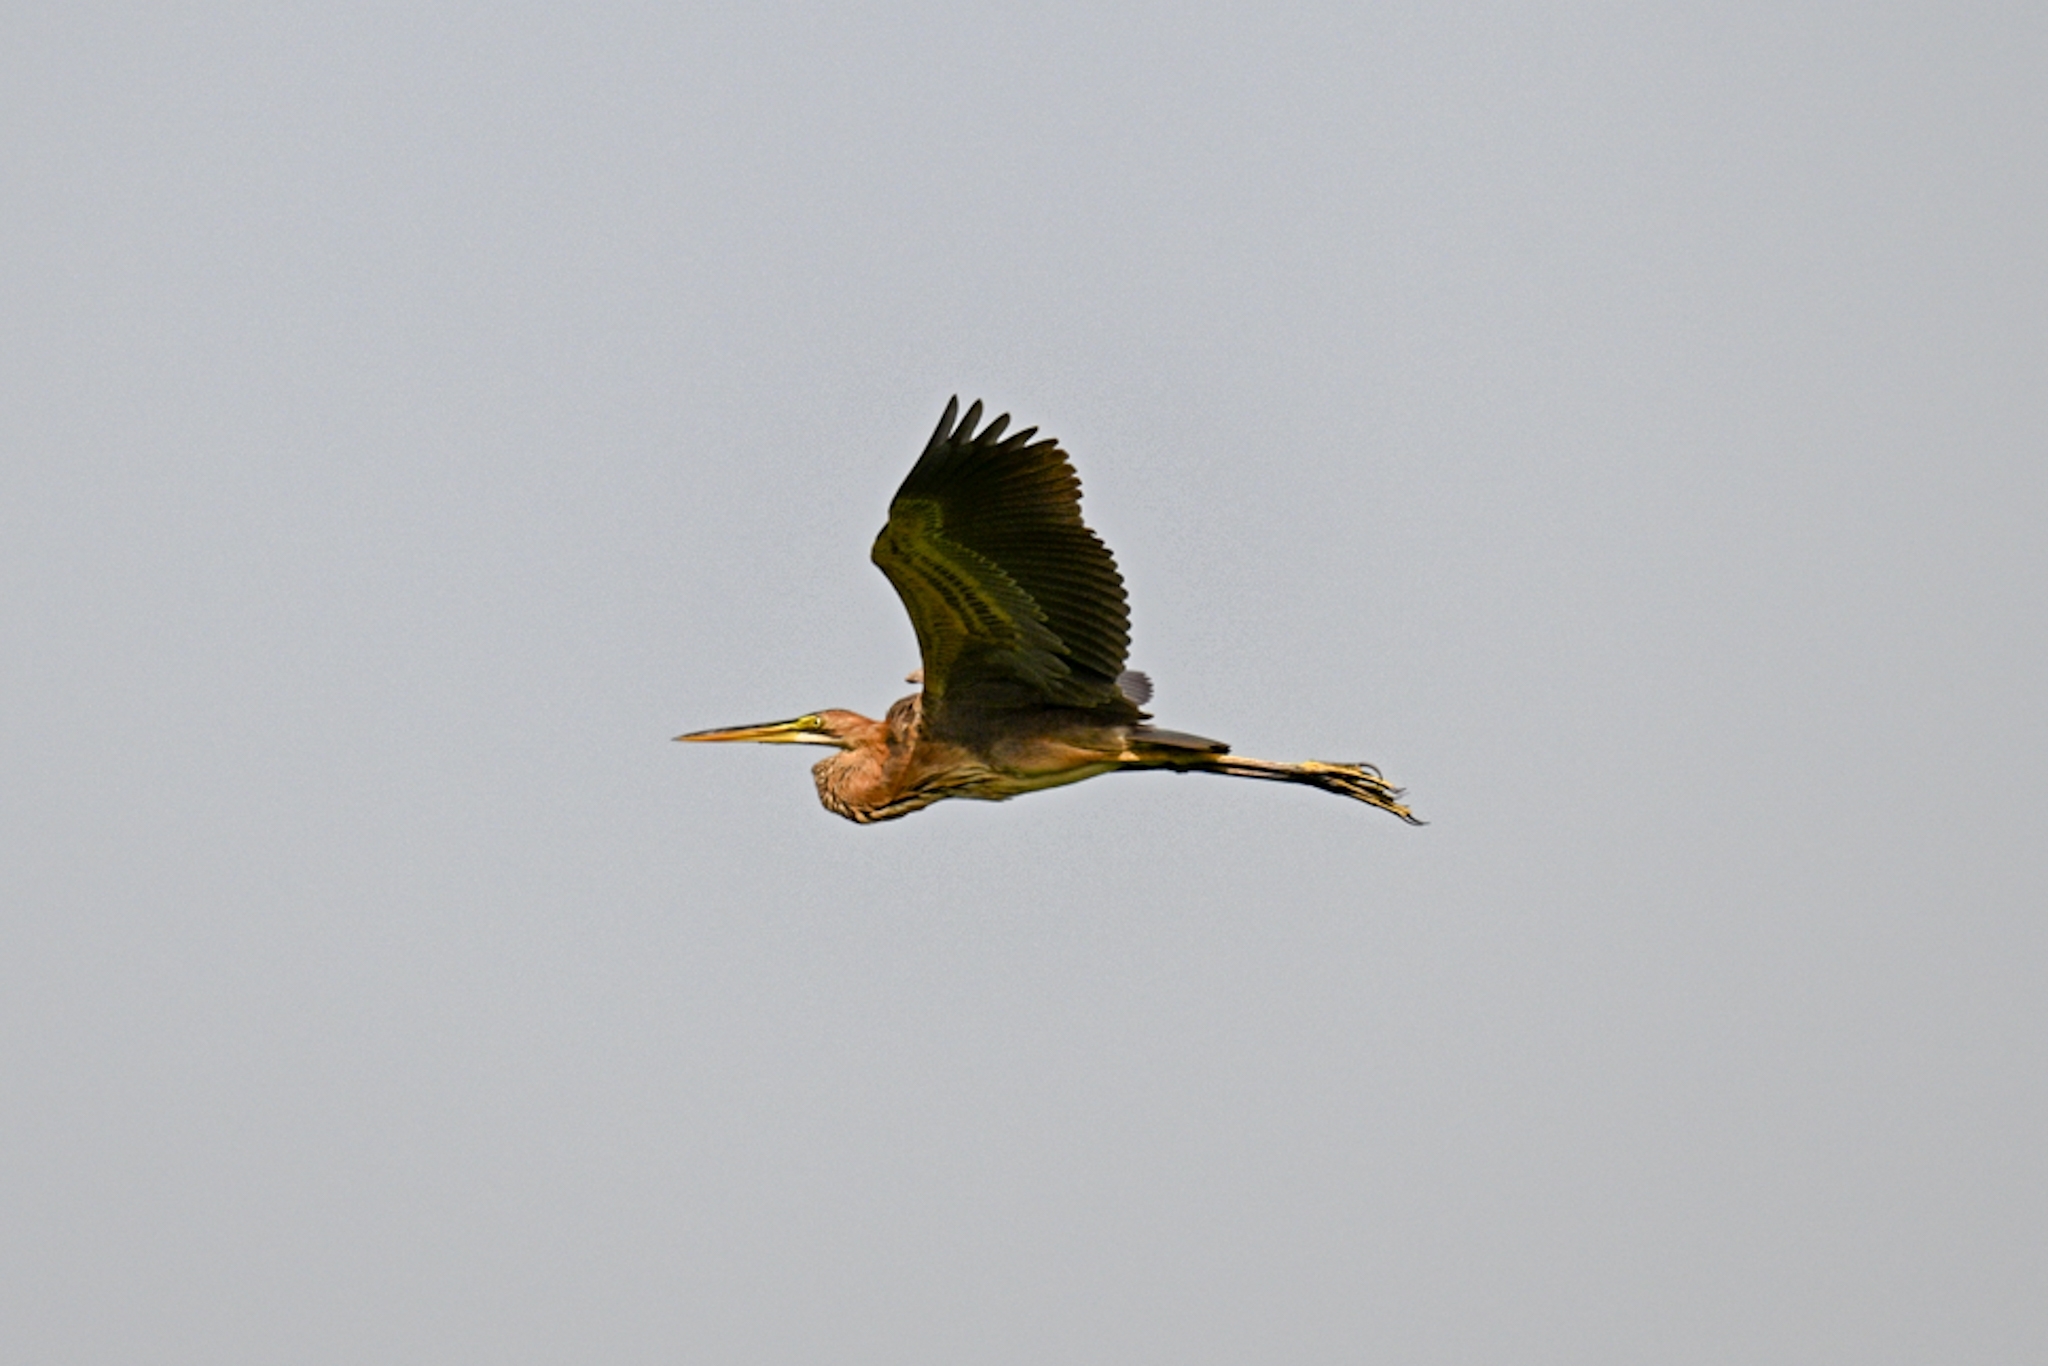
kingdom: Animalia
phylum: Chordata
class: Aves
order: Pelecaniformes
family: Ardeidae
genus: Ardea
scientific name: Ardea purpurea
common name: Purple heron
